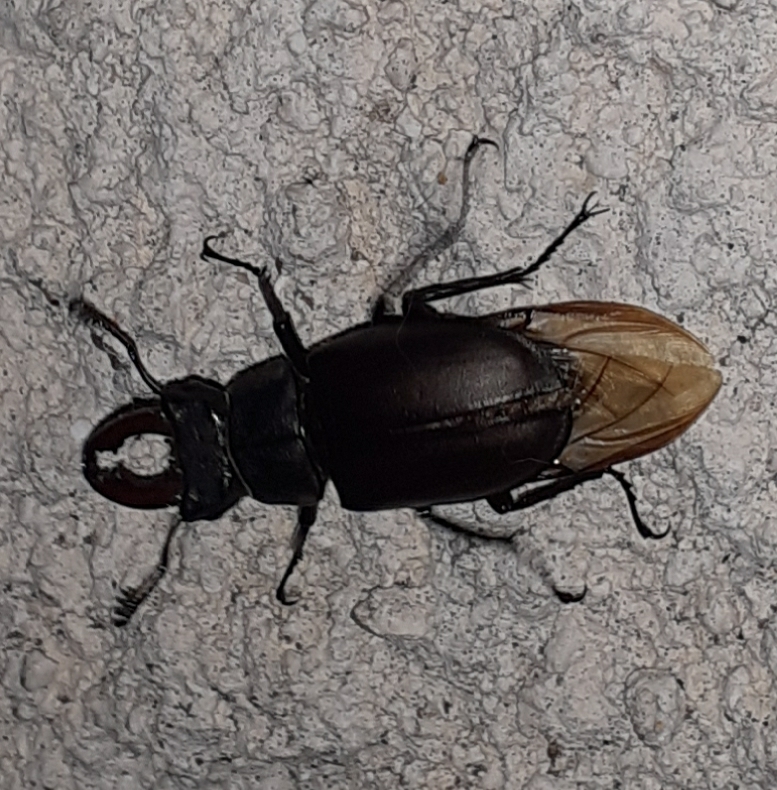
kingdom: Animalia
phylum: Arthropoda
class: Insecta
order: Coleoptera
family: Lucanidae
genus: Lucanus
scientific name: Lucanus cervus
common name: Stag beetle
